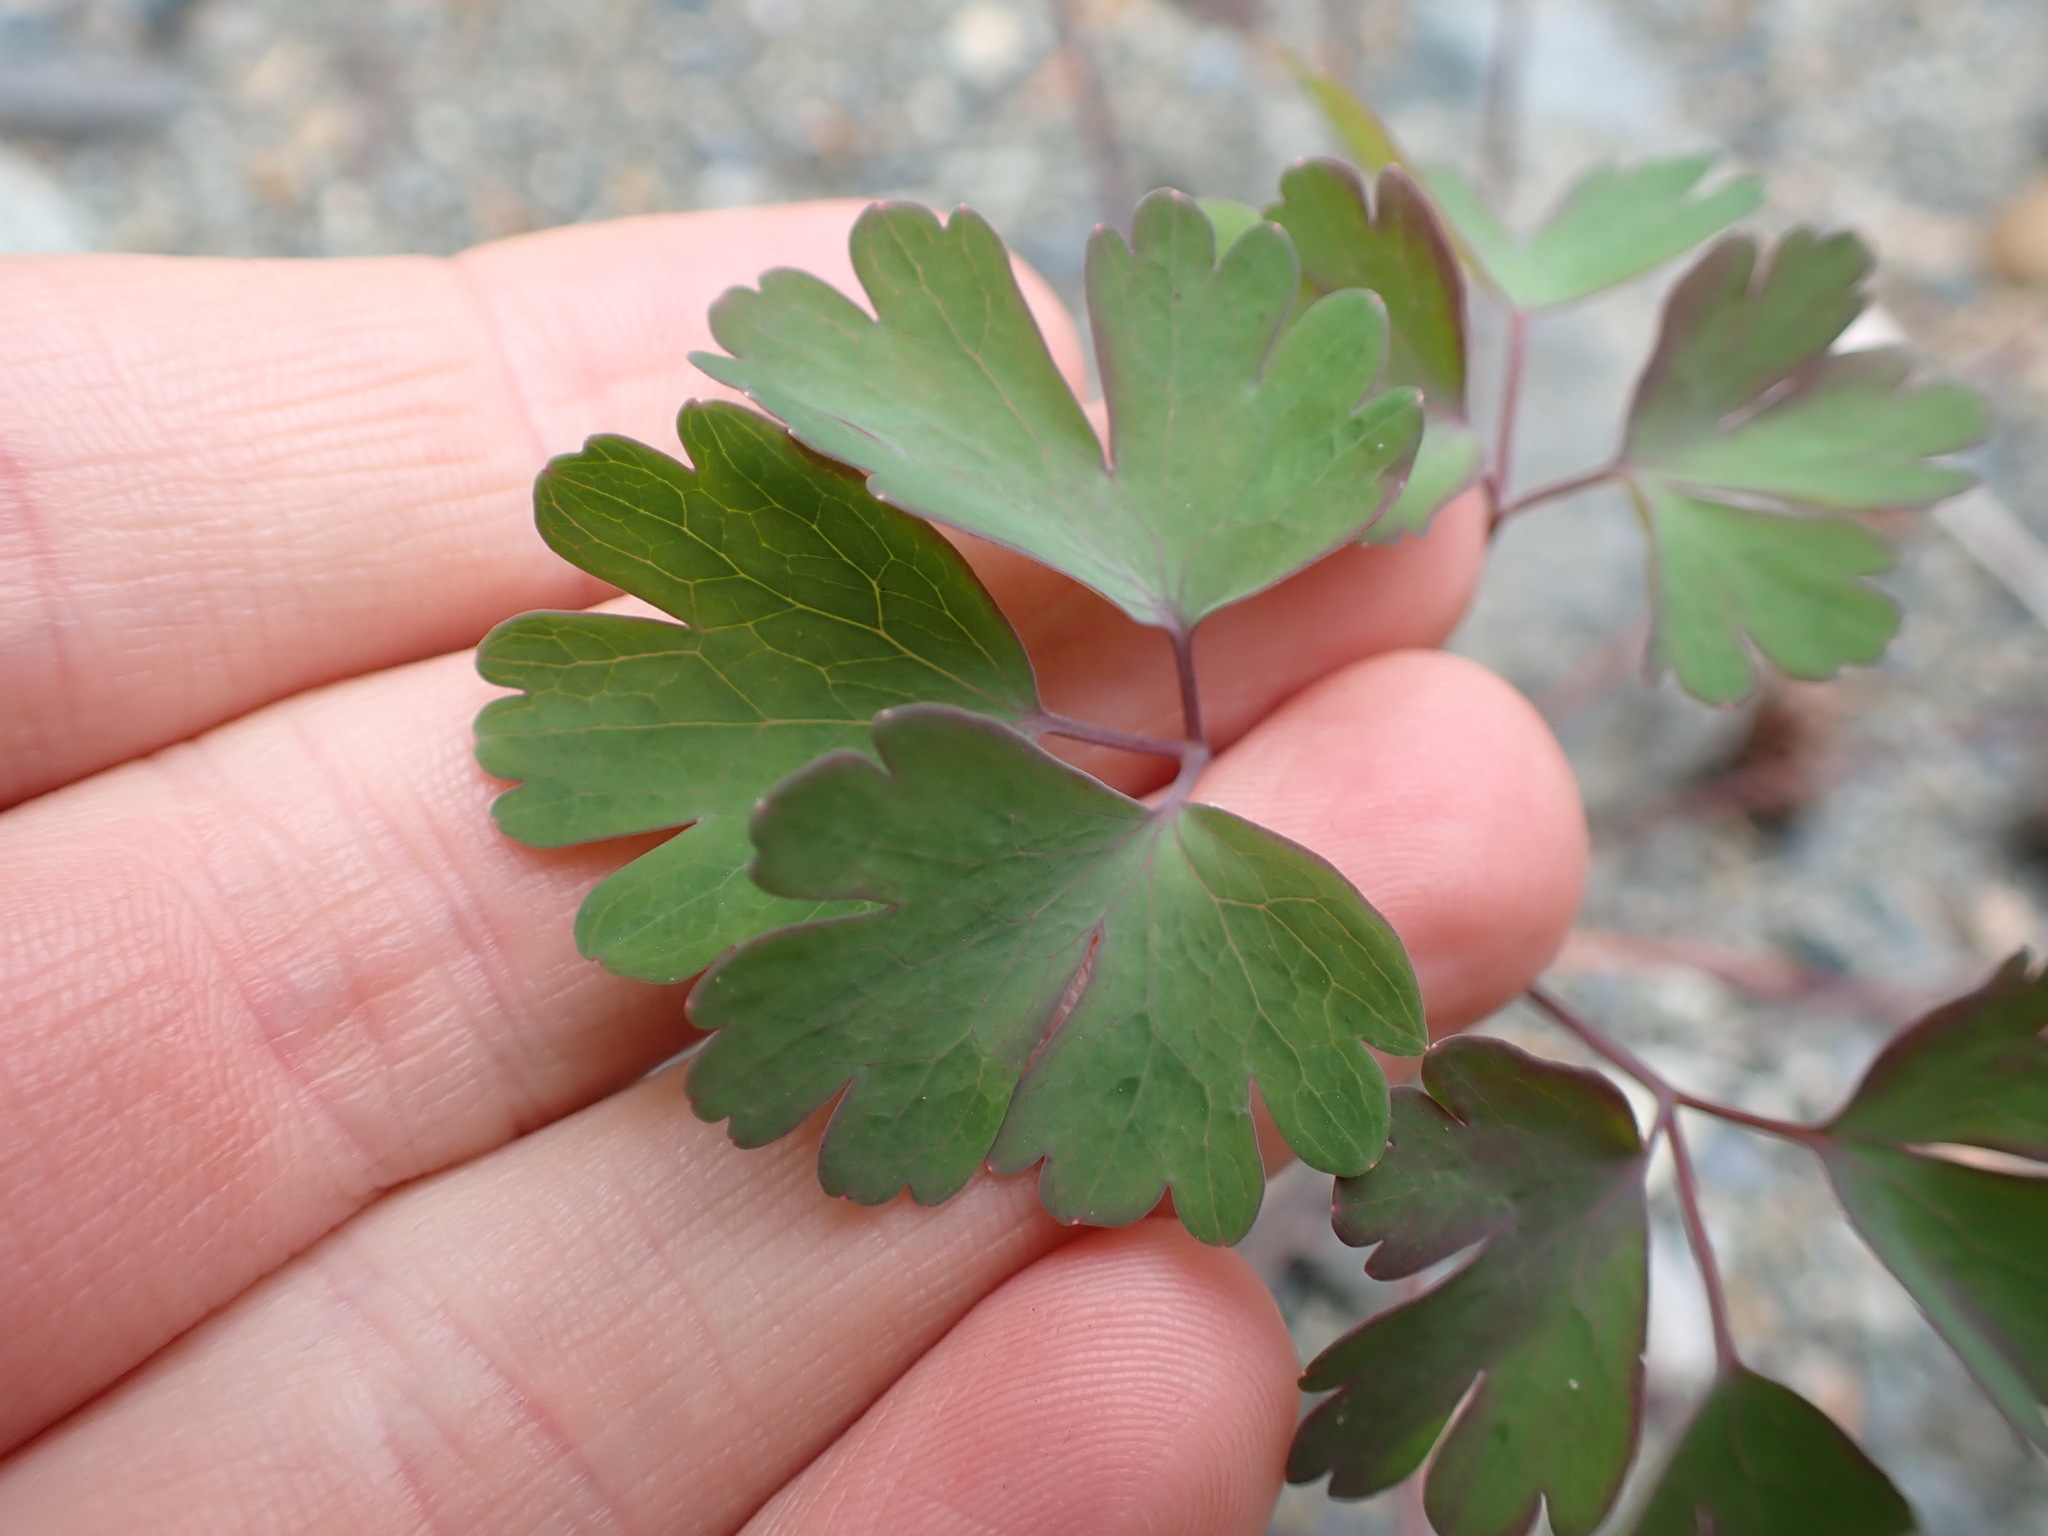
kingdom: Plantae
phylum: Tracheophyta
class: Magnoliopsida
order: Ranunculales
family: Ranunculaceae
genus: Aquilegia
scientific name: Aquilegia formosa
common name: Sitka columbine
